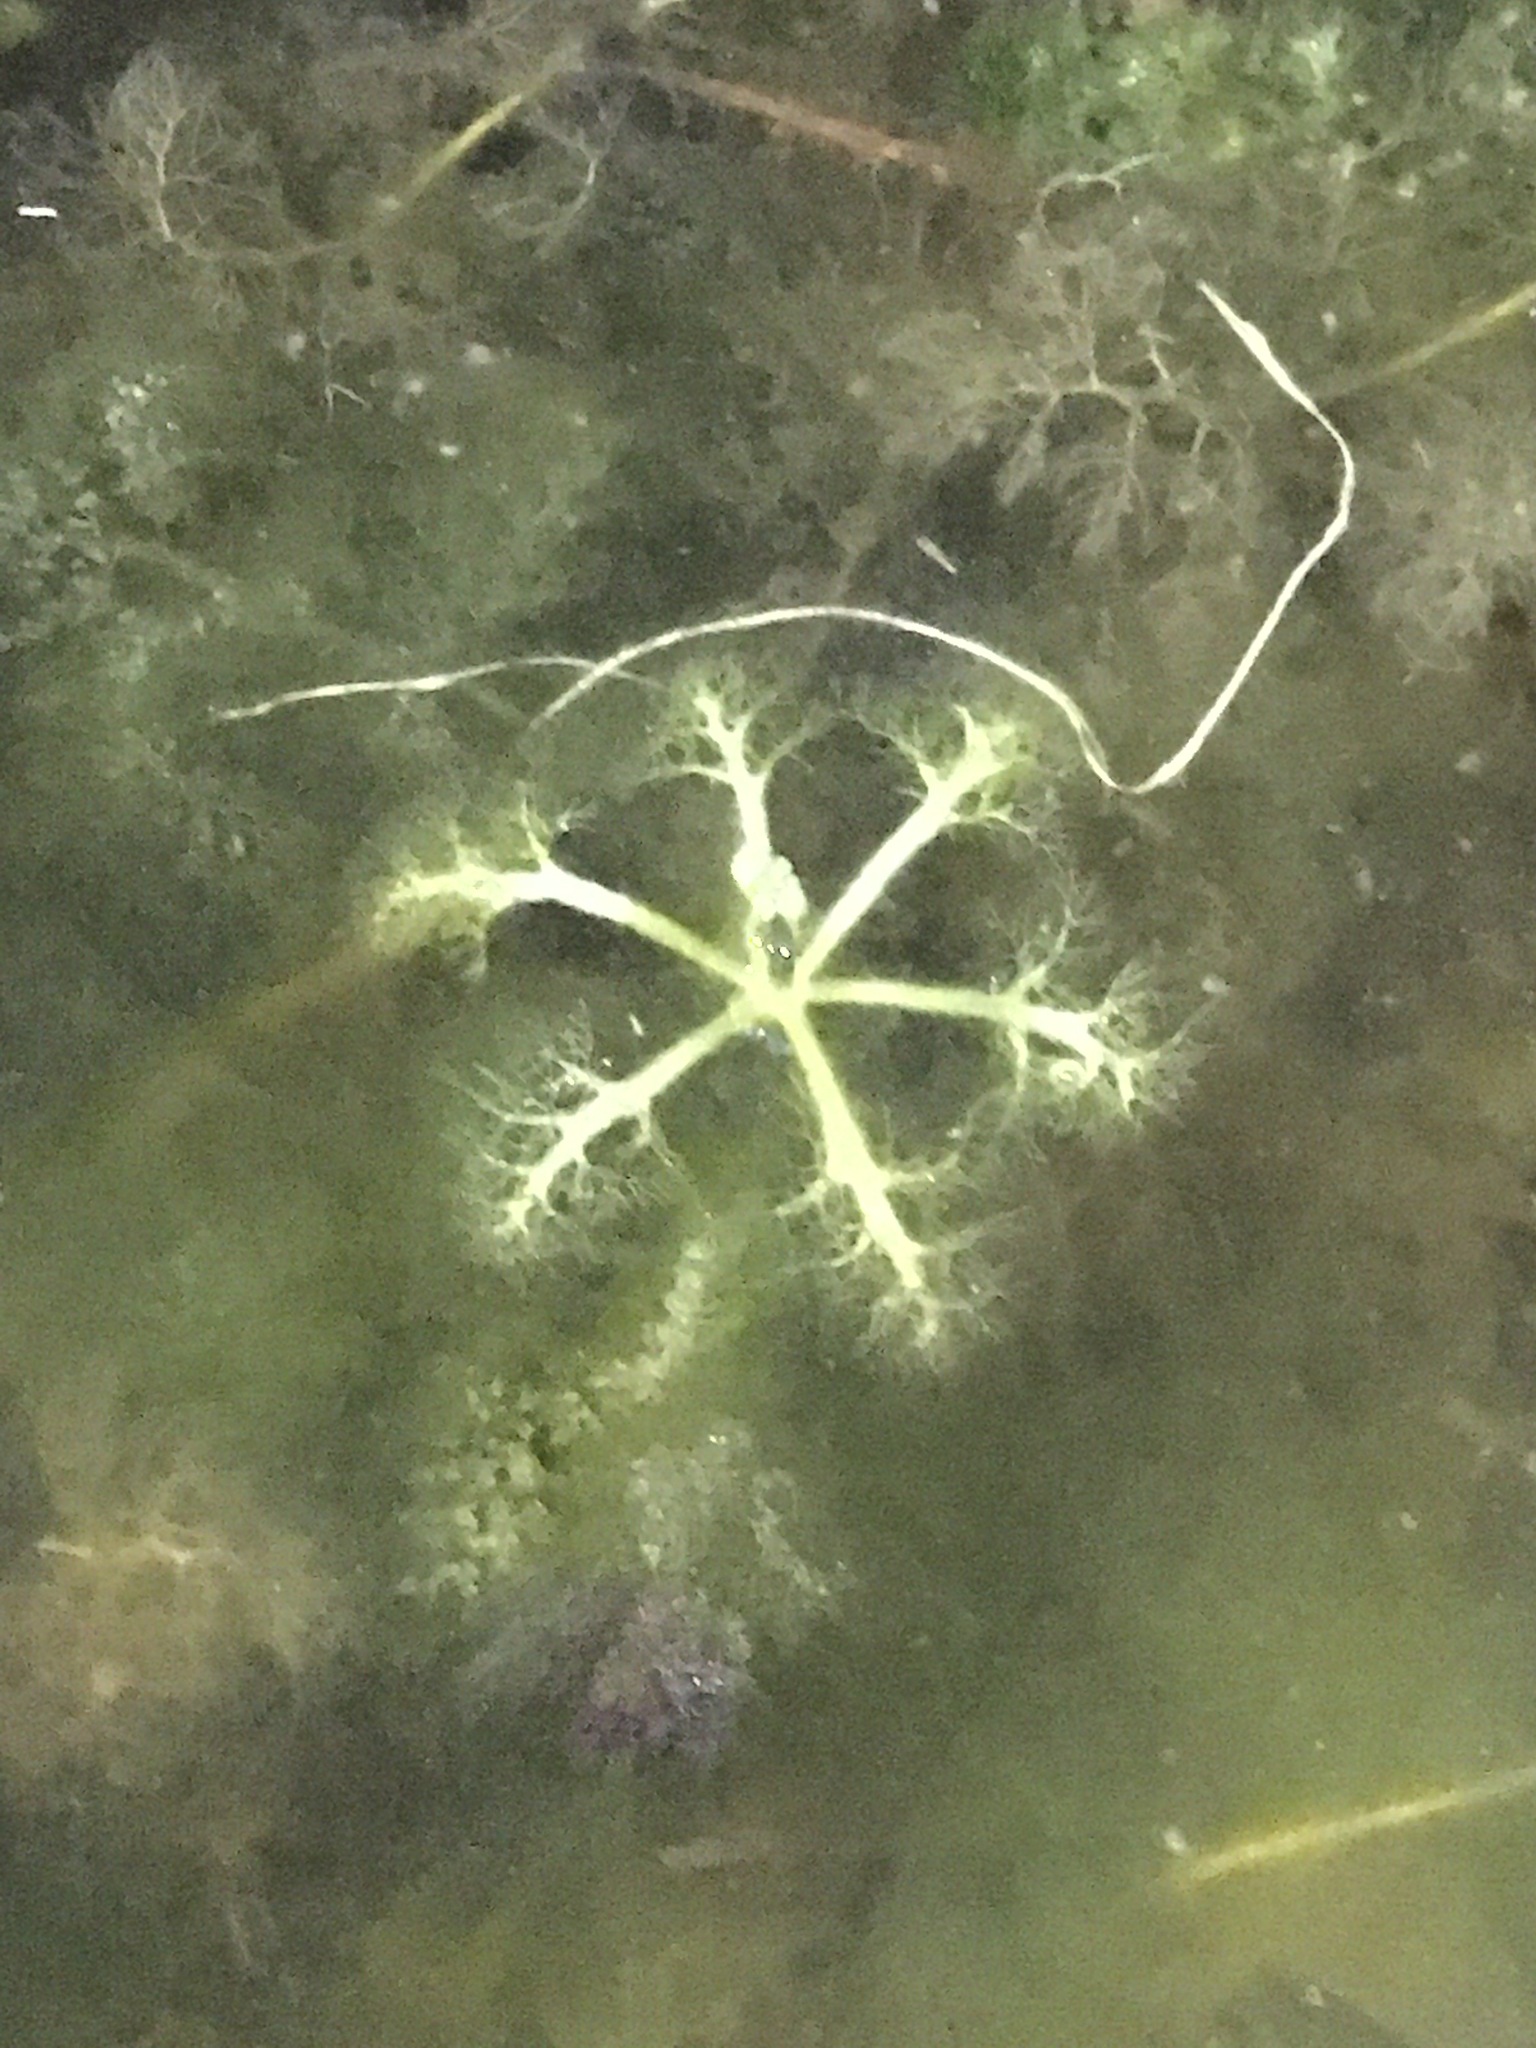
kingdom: Plantae
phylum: Tracheophyta
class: Magnoliopsida
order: Lamiales
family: Lentibulariaceae
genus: Utricularia
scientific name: Utricularia inflata
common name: Floating bladderwort
